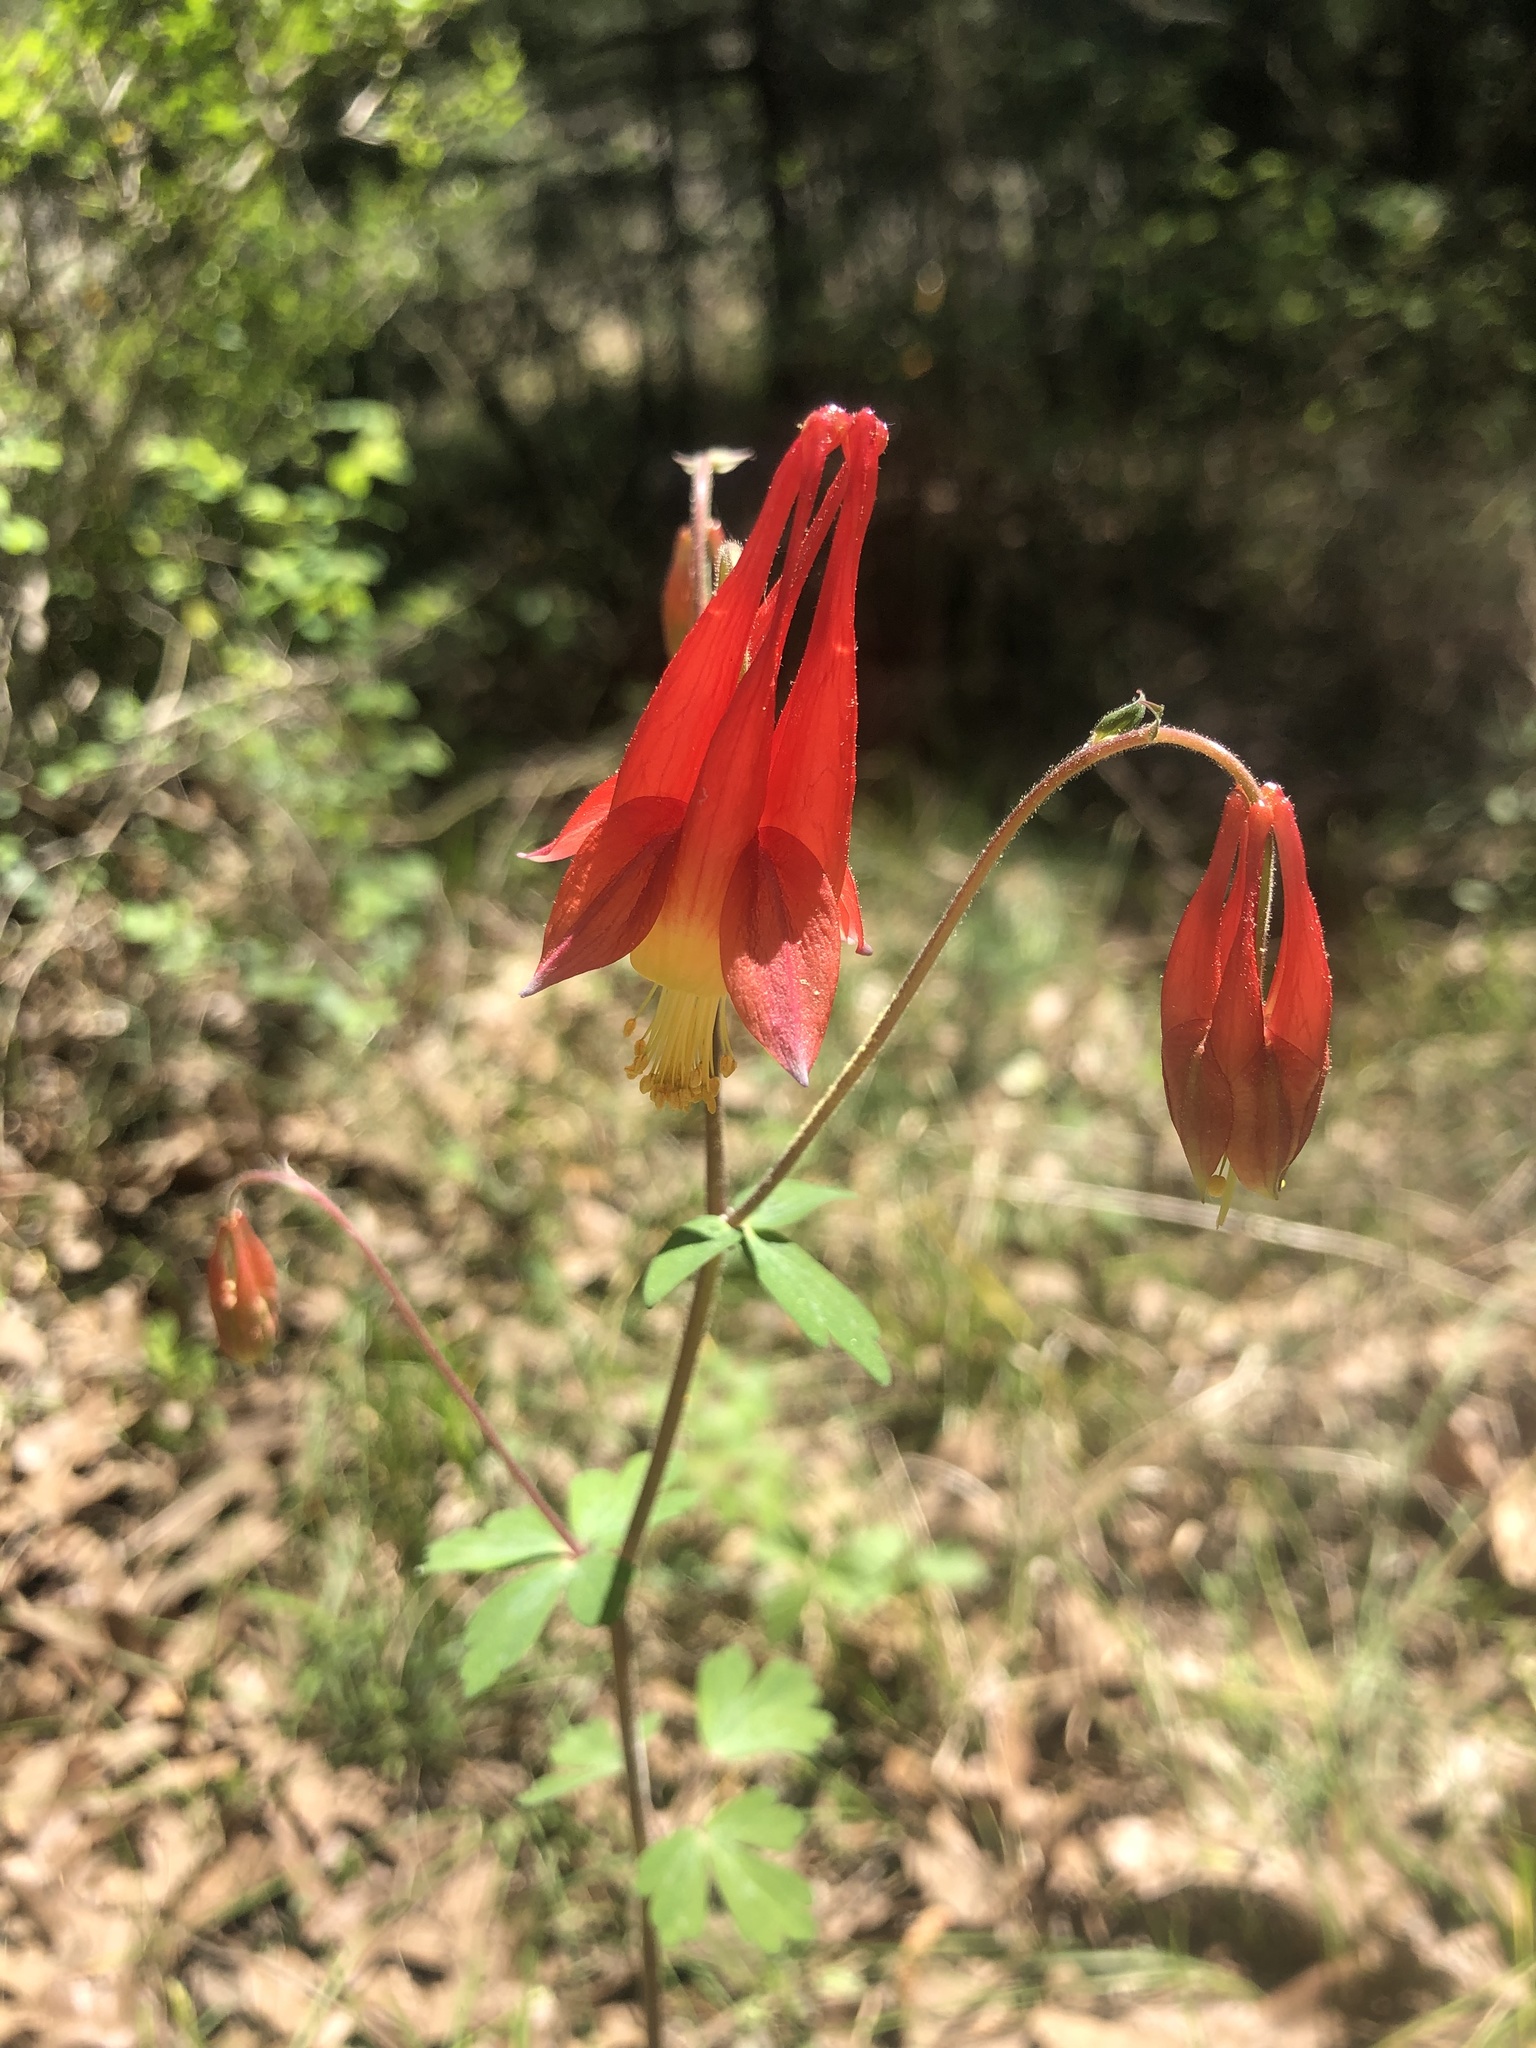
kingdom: Plantae
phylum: Tracheophyta
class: Magnoliopsida
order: Ranunculales
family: Ranunculaceae
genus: Aquilegia
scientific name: Aquilegia canadensis
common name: American columbine
